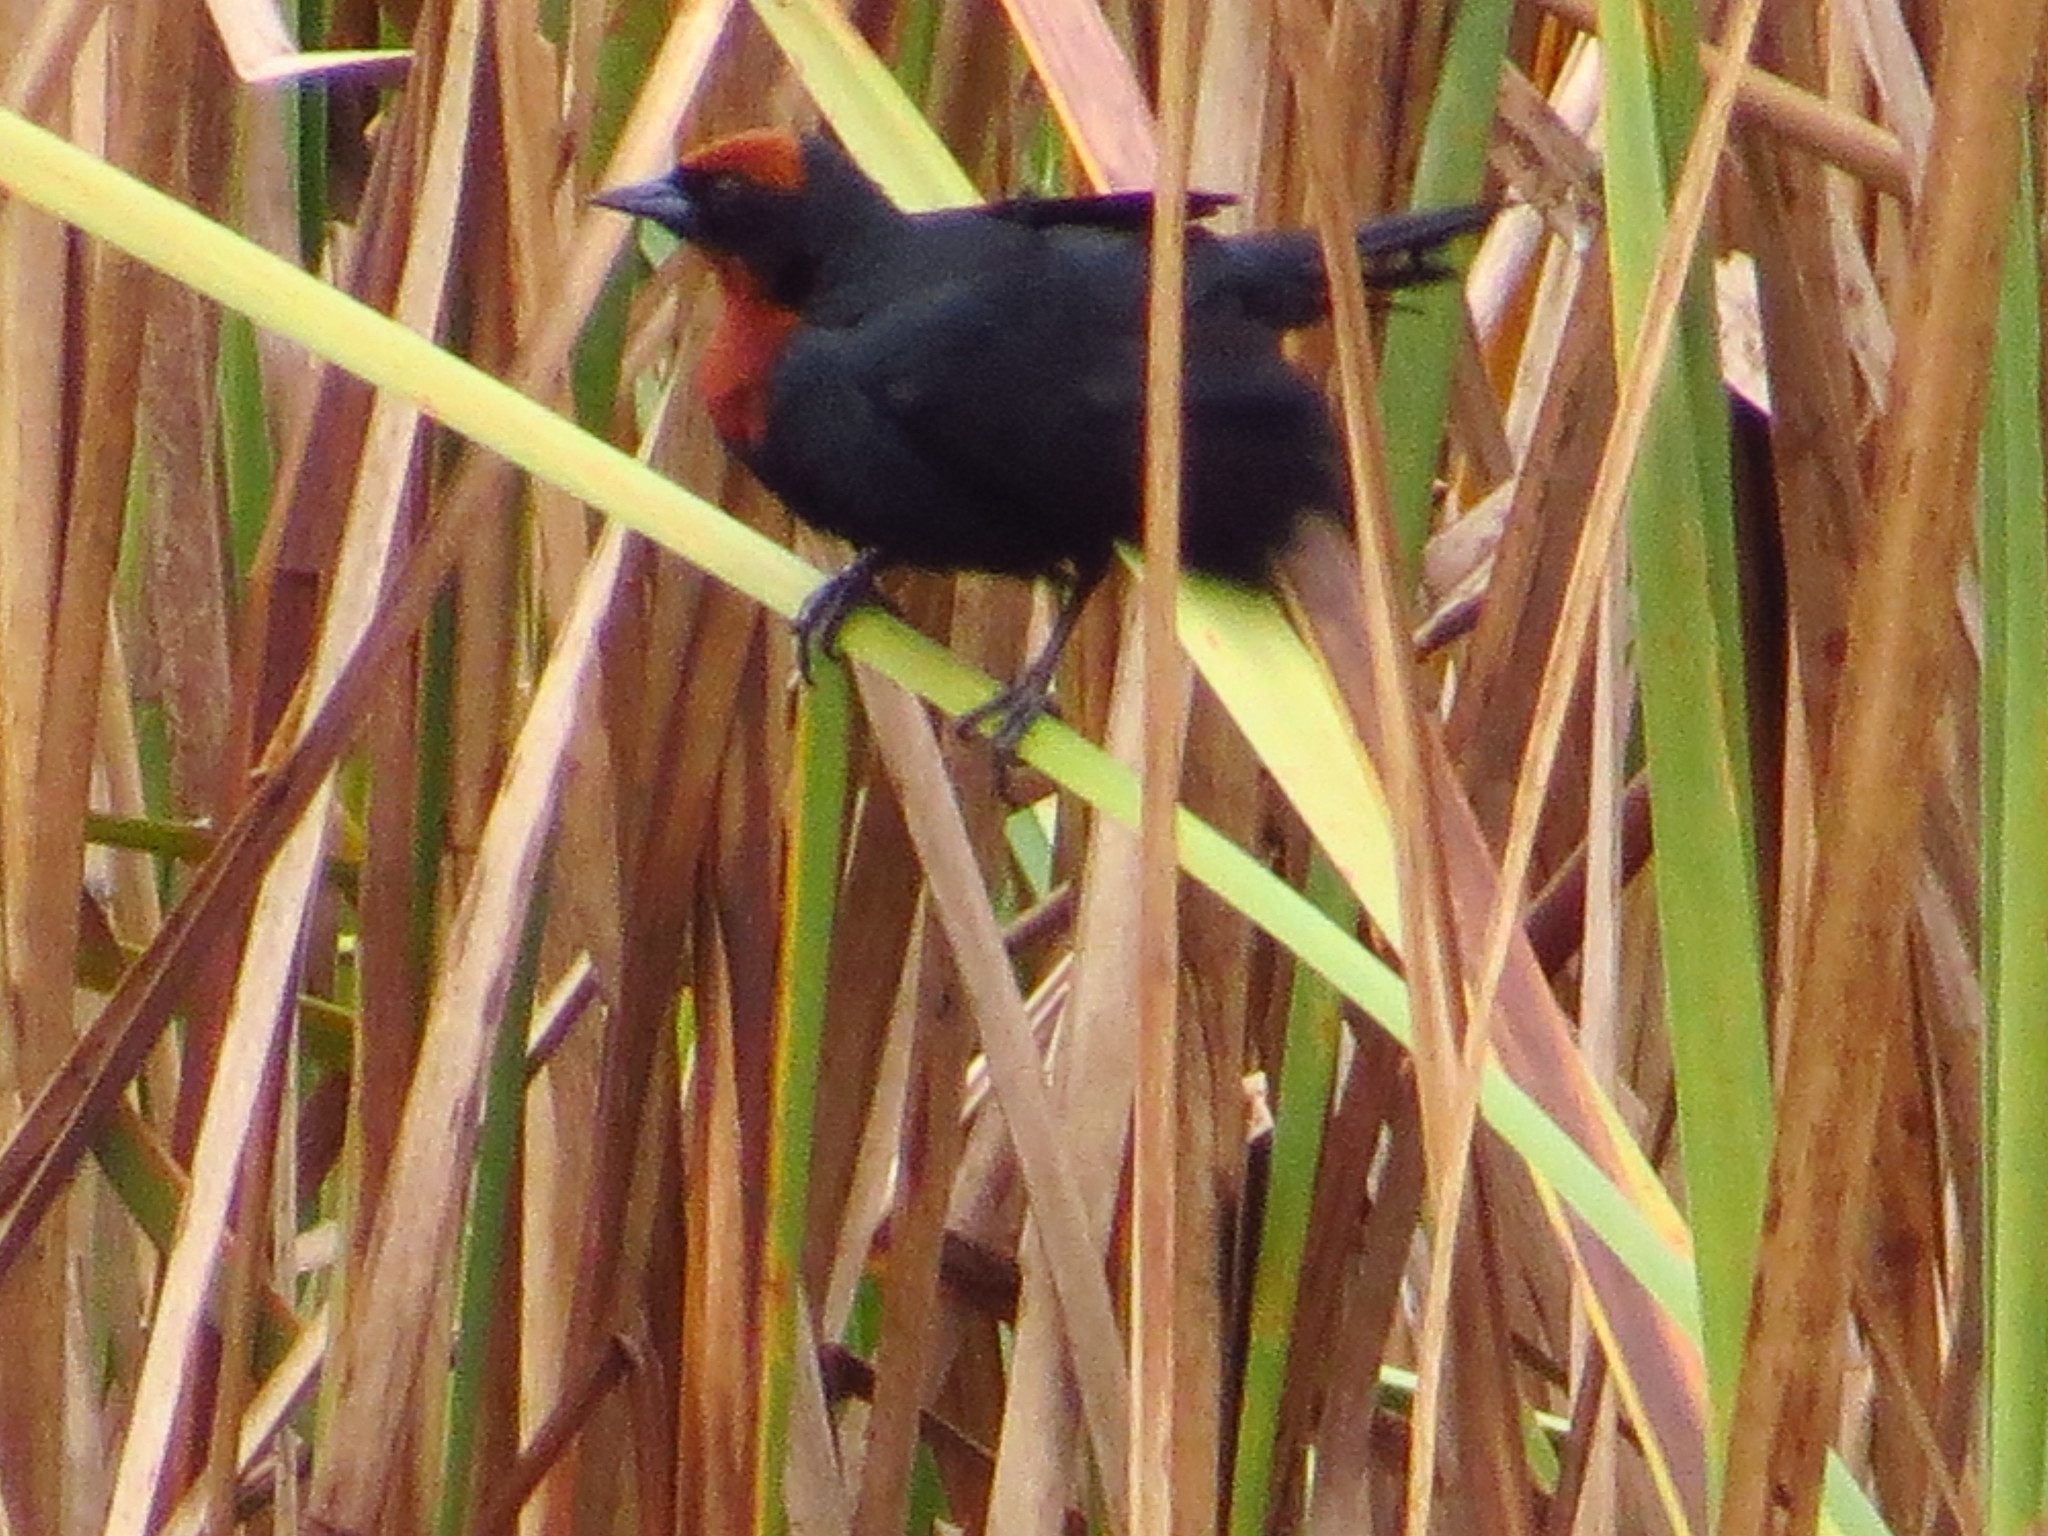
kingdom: Animalia
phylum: Chordata
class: Aves
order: Passeriformes
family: Icteridae
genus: Chrysomus
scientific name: Chrysomus ruficapillus
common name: Chestnut-capped blackbird
